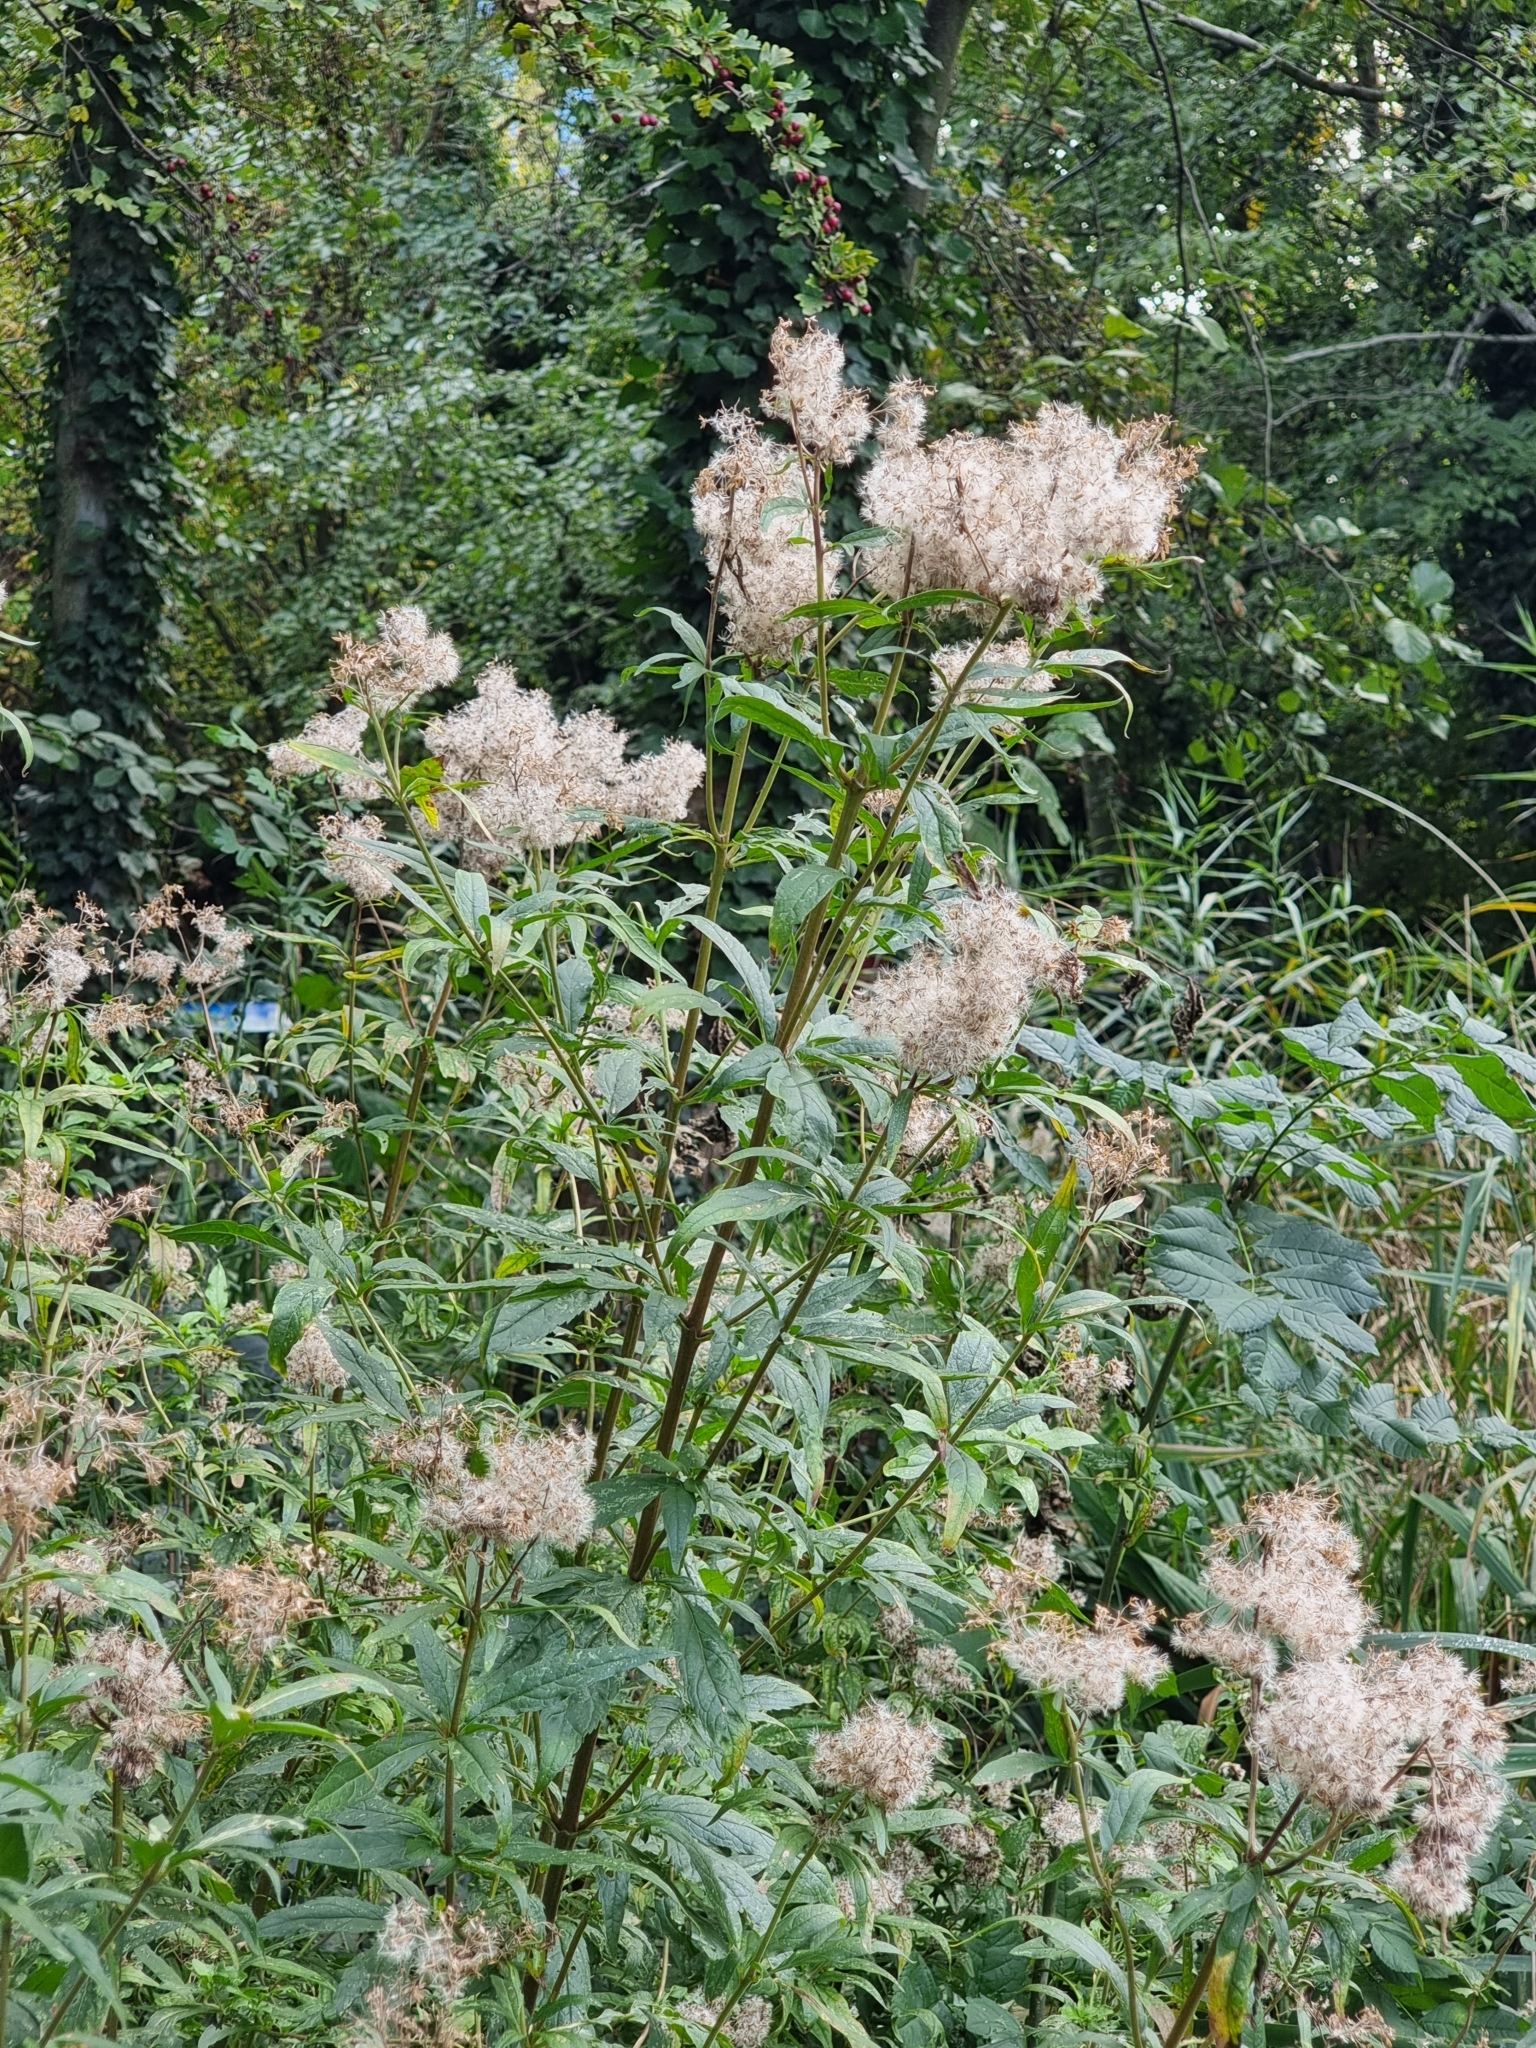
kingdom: Plantae
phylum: Tracheophyta
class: Magnoliopsida
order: Asterales
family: Asteraceae
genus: Eupatorium
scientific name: Eupatorium cannabinum
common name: Hemp-agrimony
